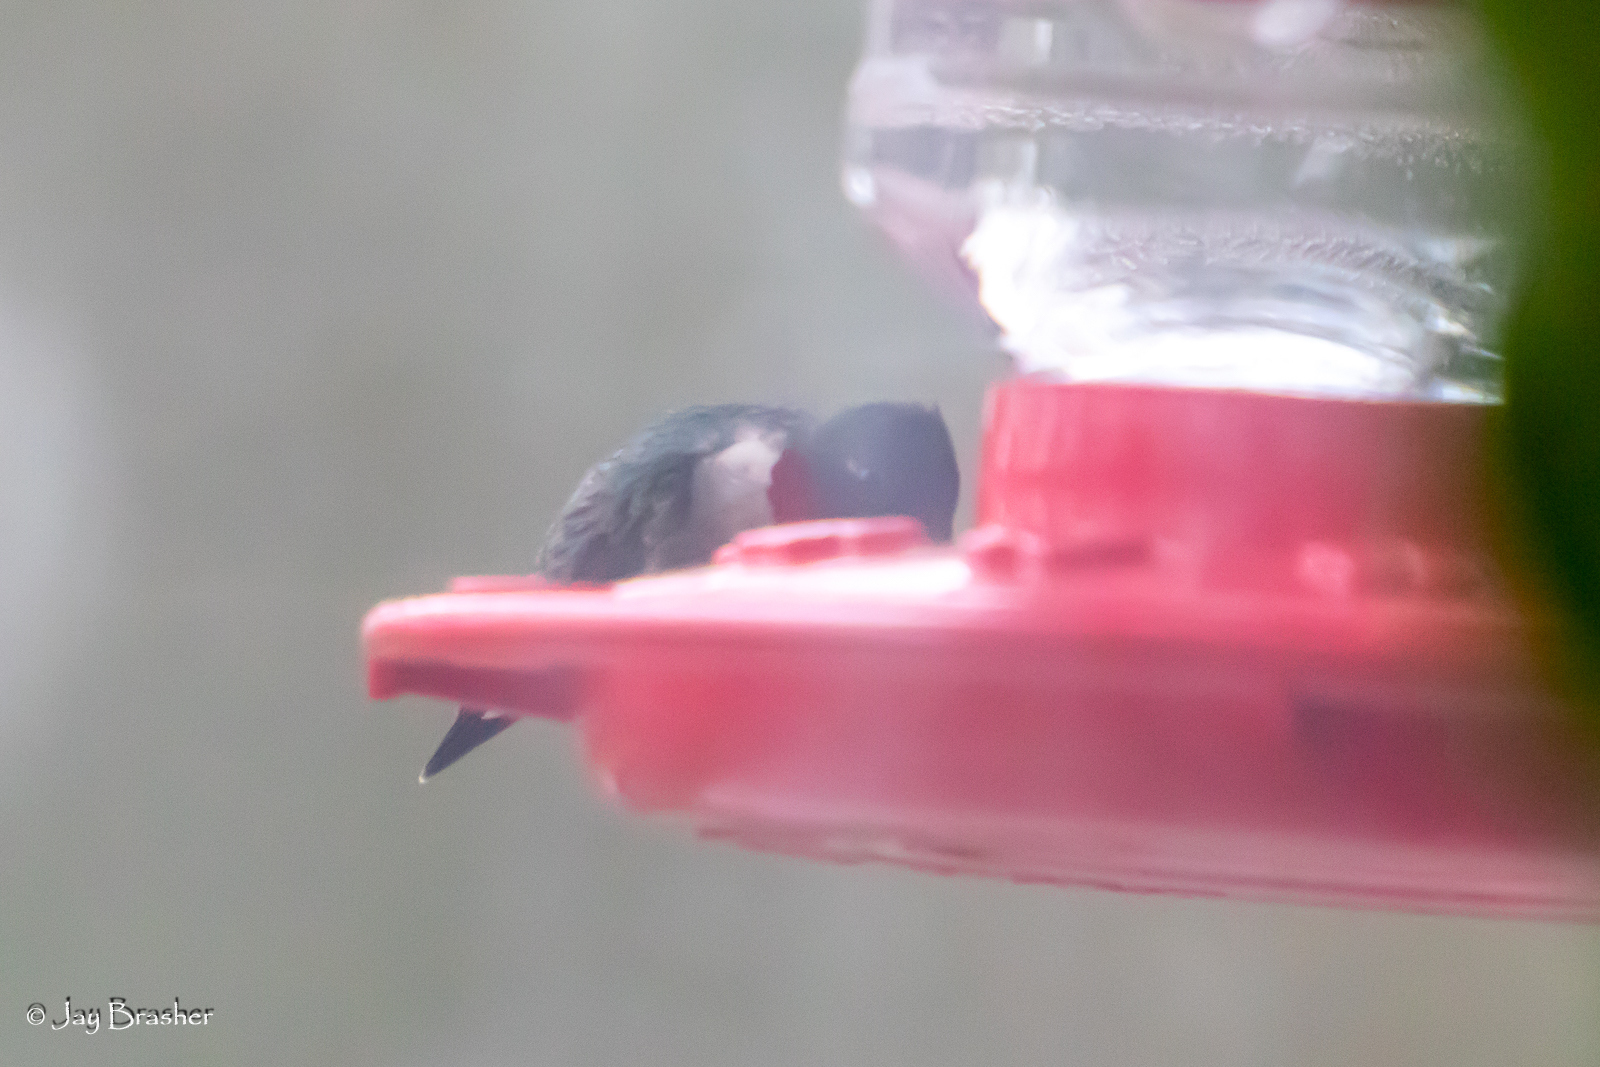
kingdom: Animalia
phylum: Chordata
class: Aves
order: Apodiformes
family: Trochilidae
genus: Archilochus
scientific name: Archilochus colubris
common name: Ruby-throated hummingbird
